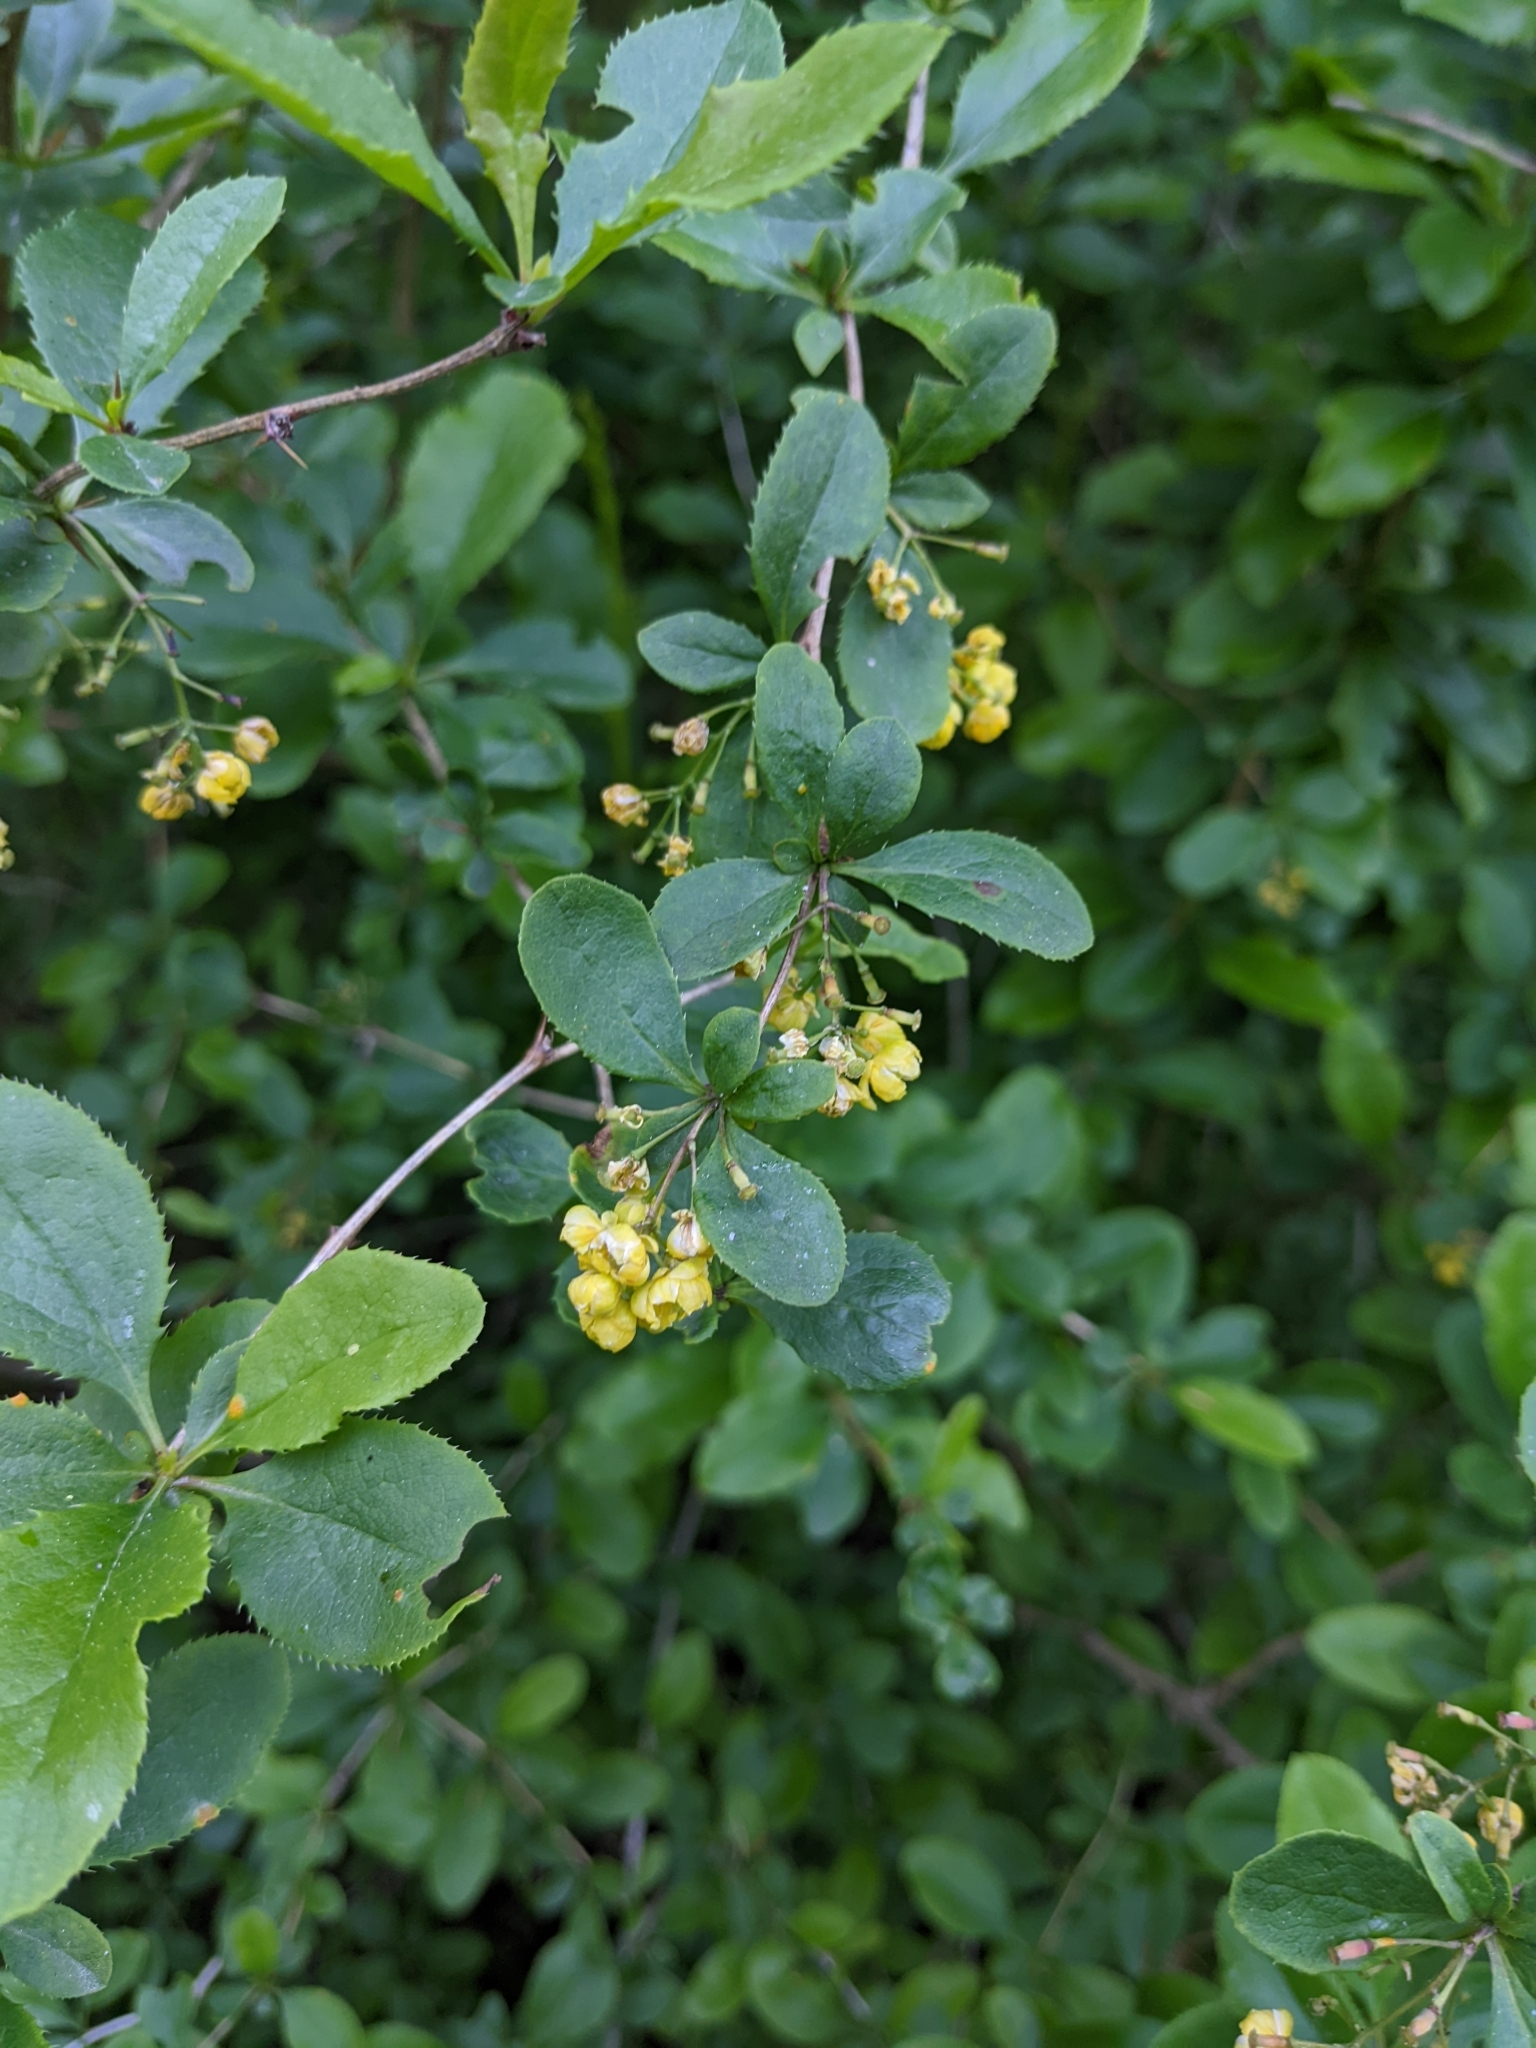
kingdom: Plantae
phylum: Tracheophyta
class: Magnoliopsida
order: Ranunculales
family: Berberidaceae
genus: Berberis
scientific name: Berberis vulgaris
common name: Barberry
